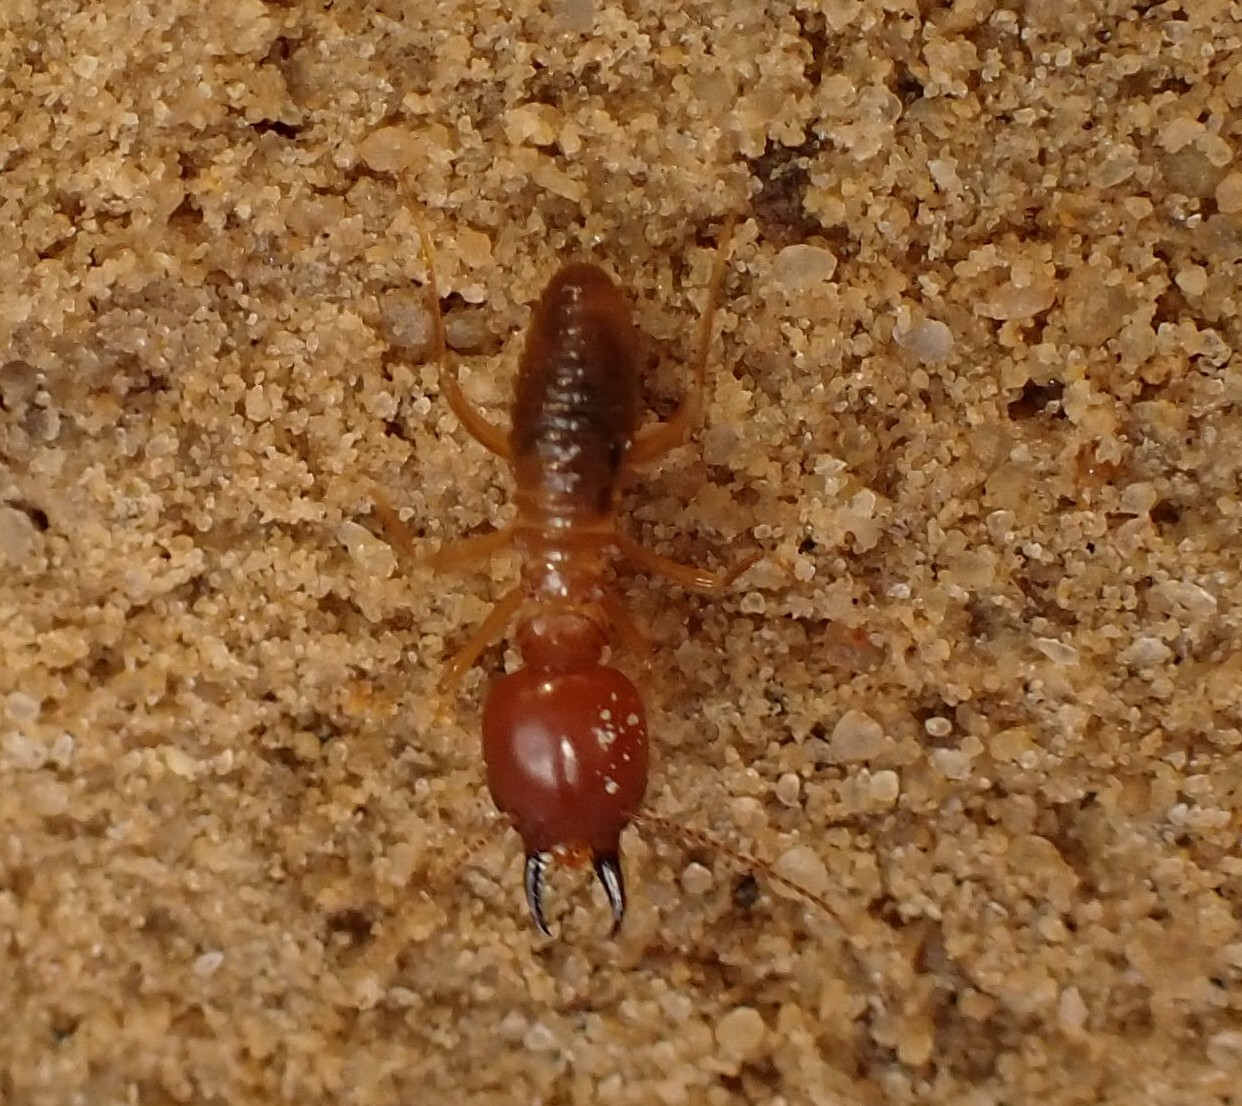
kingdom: Animalia
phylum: Arthropoda
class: Insecta
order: Blattodea
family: Termitidae
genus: Syntermes
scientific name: Syntermes nanus
